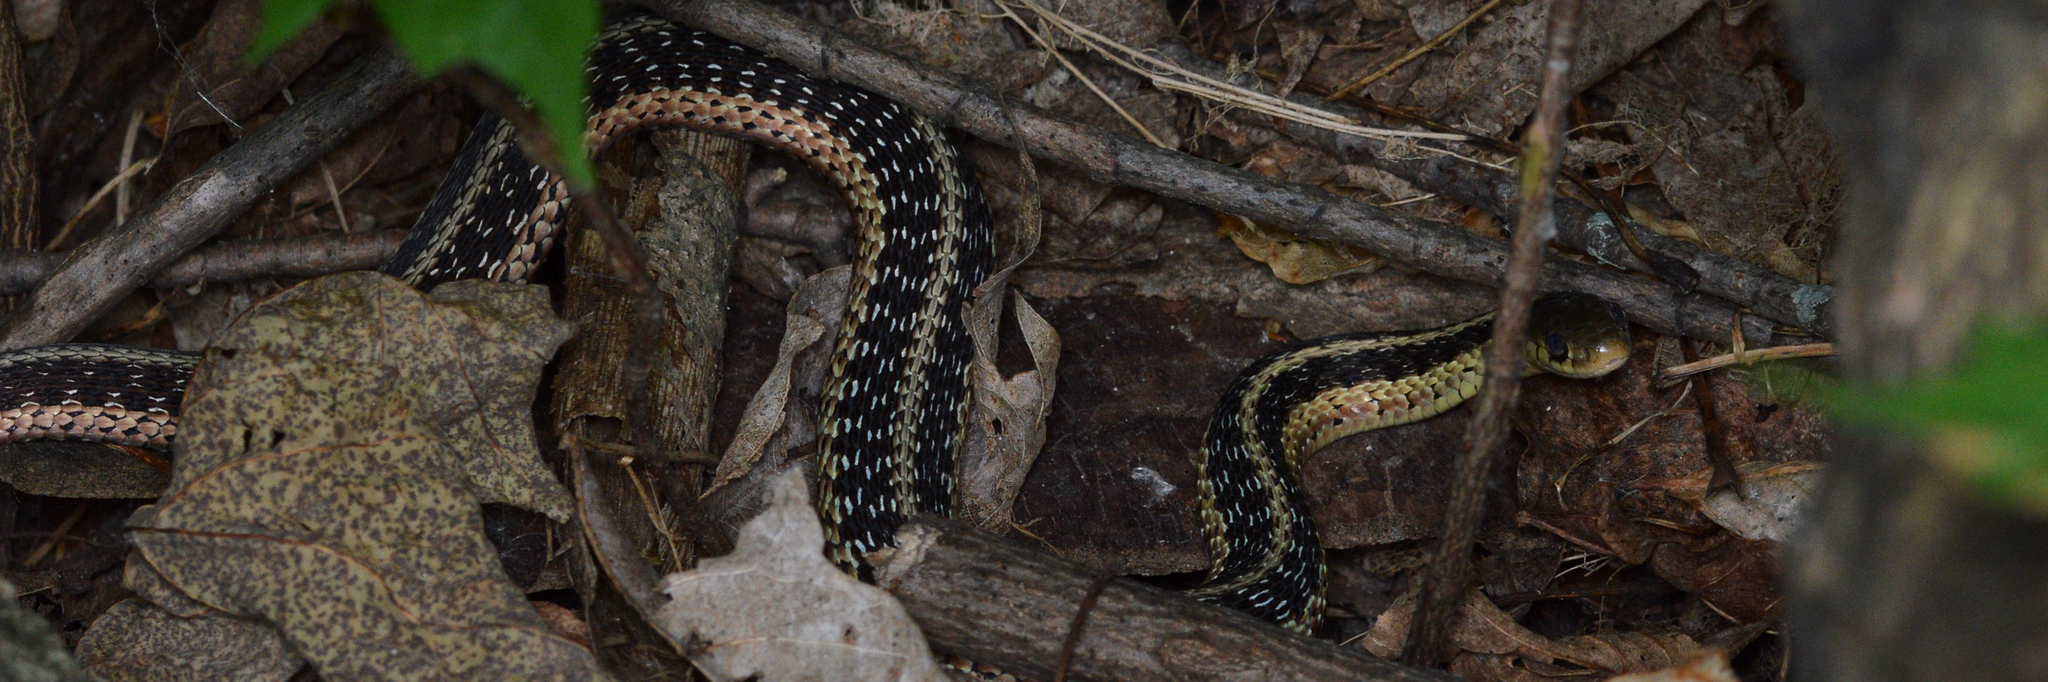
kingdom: Animalia
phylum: Chordata
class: Squamata
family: Colubridae
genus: Thamnophis
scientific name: Thamnophis sirtalis
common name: Common garter snake
